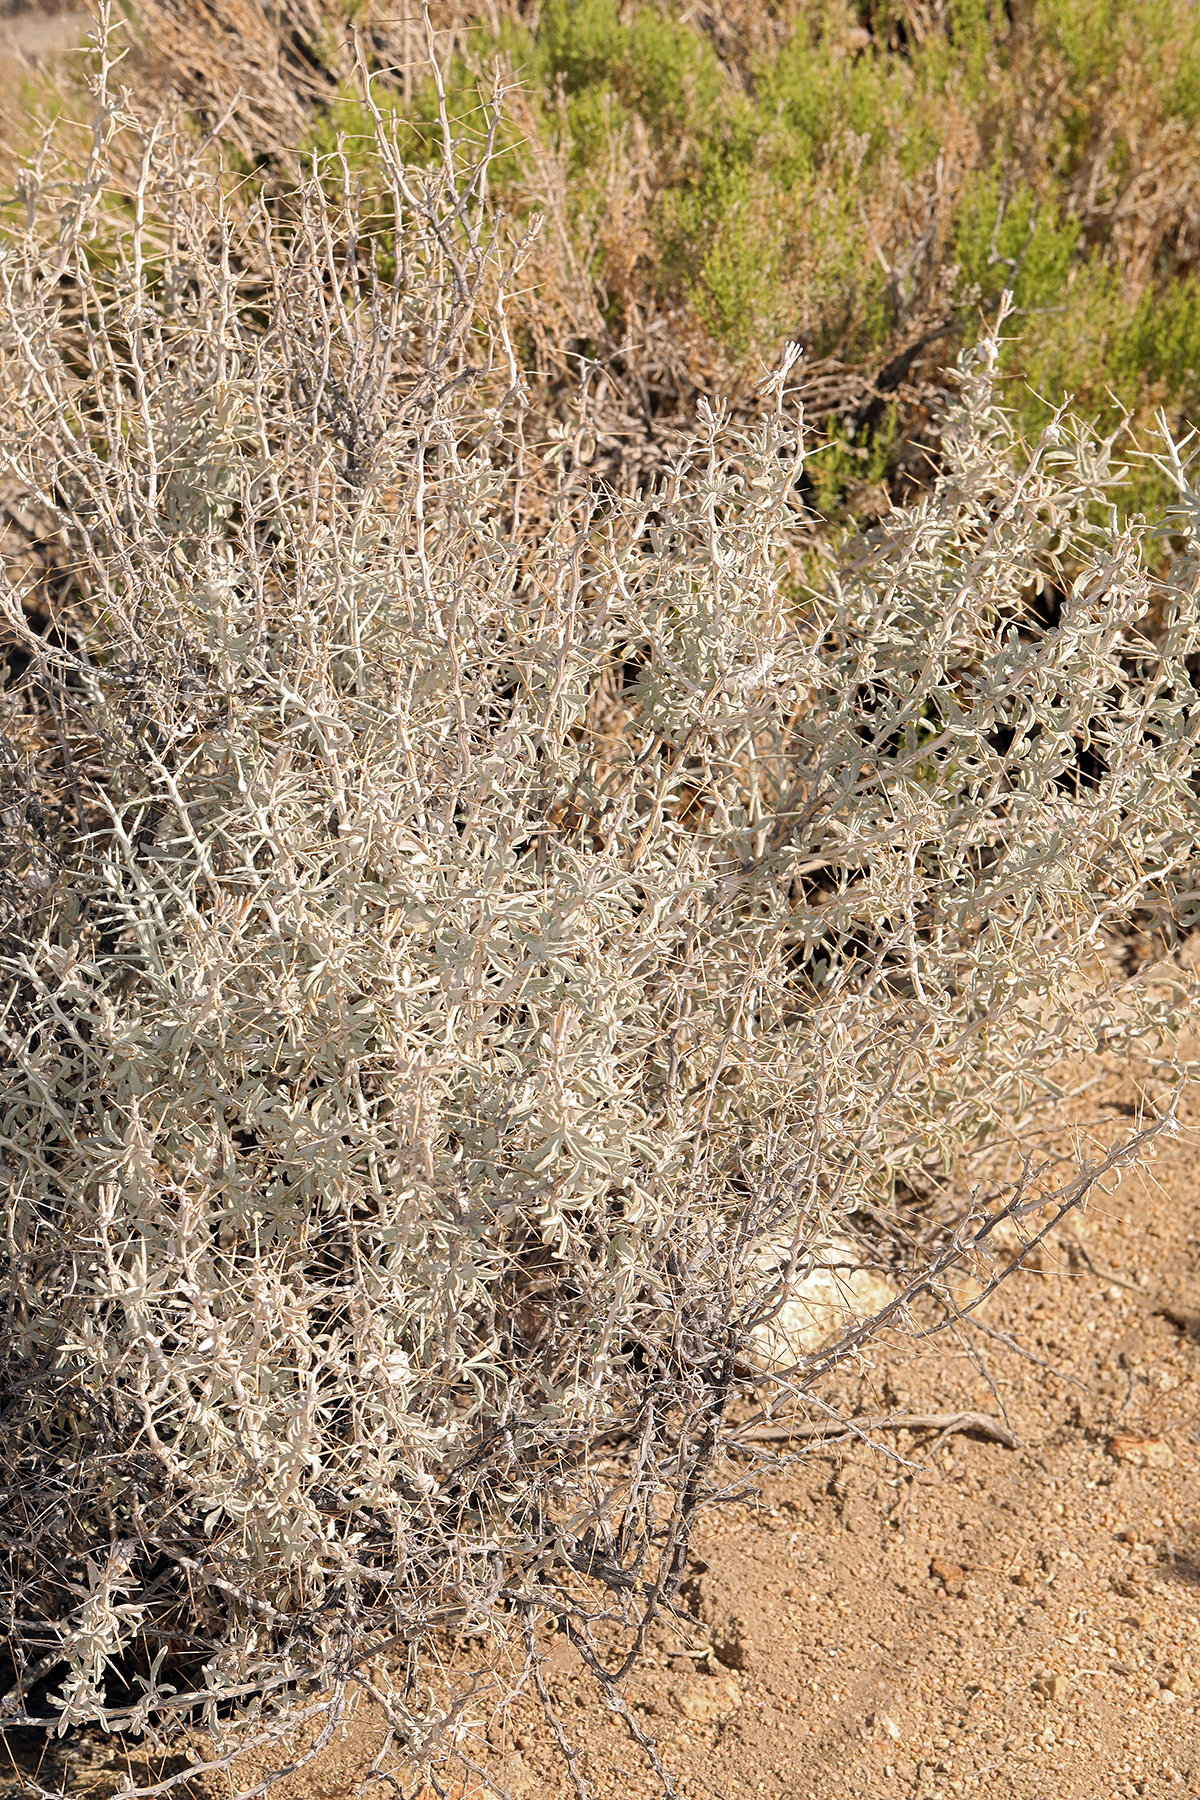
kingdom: Plantae
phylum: Tracheophyta
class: Magnoliopsida
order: Asterales
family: Asteraceae
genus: Tetradymia
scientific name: Tetradymia stenolepis
